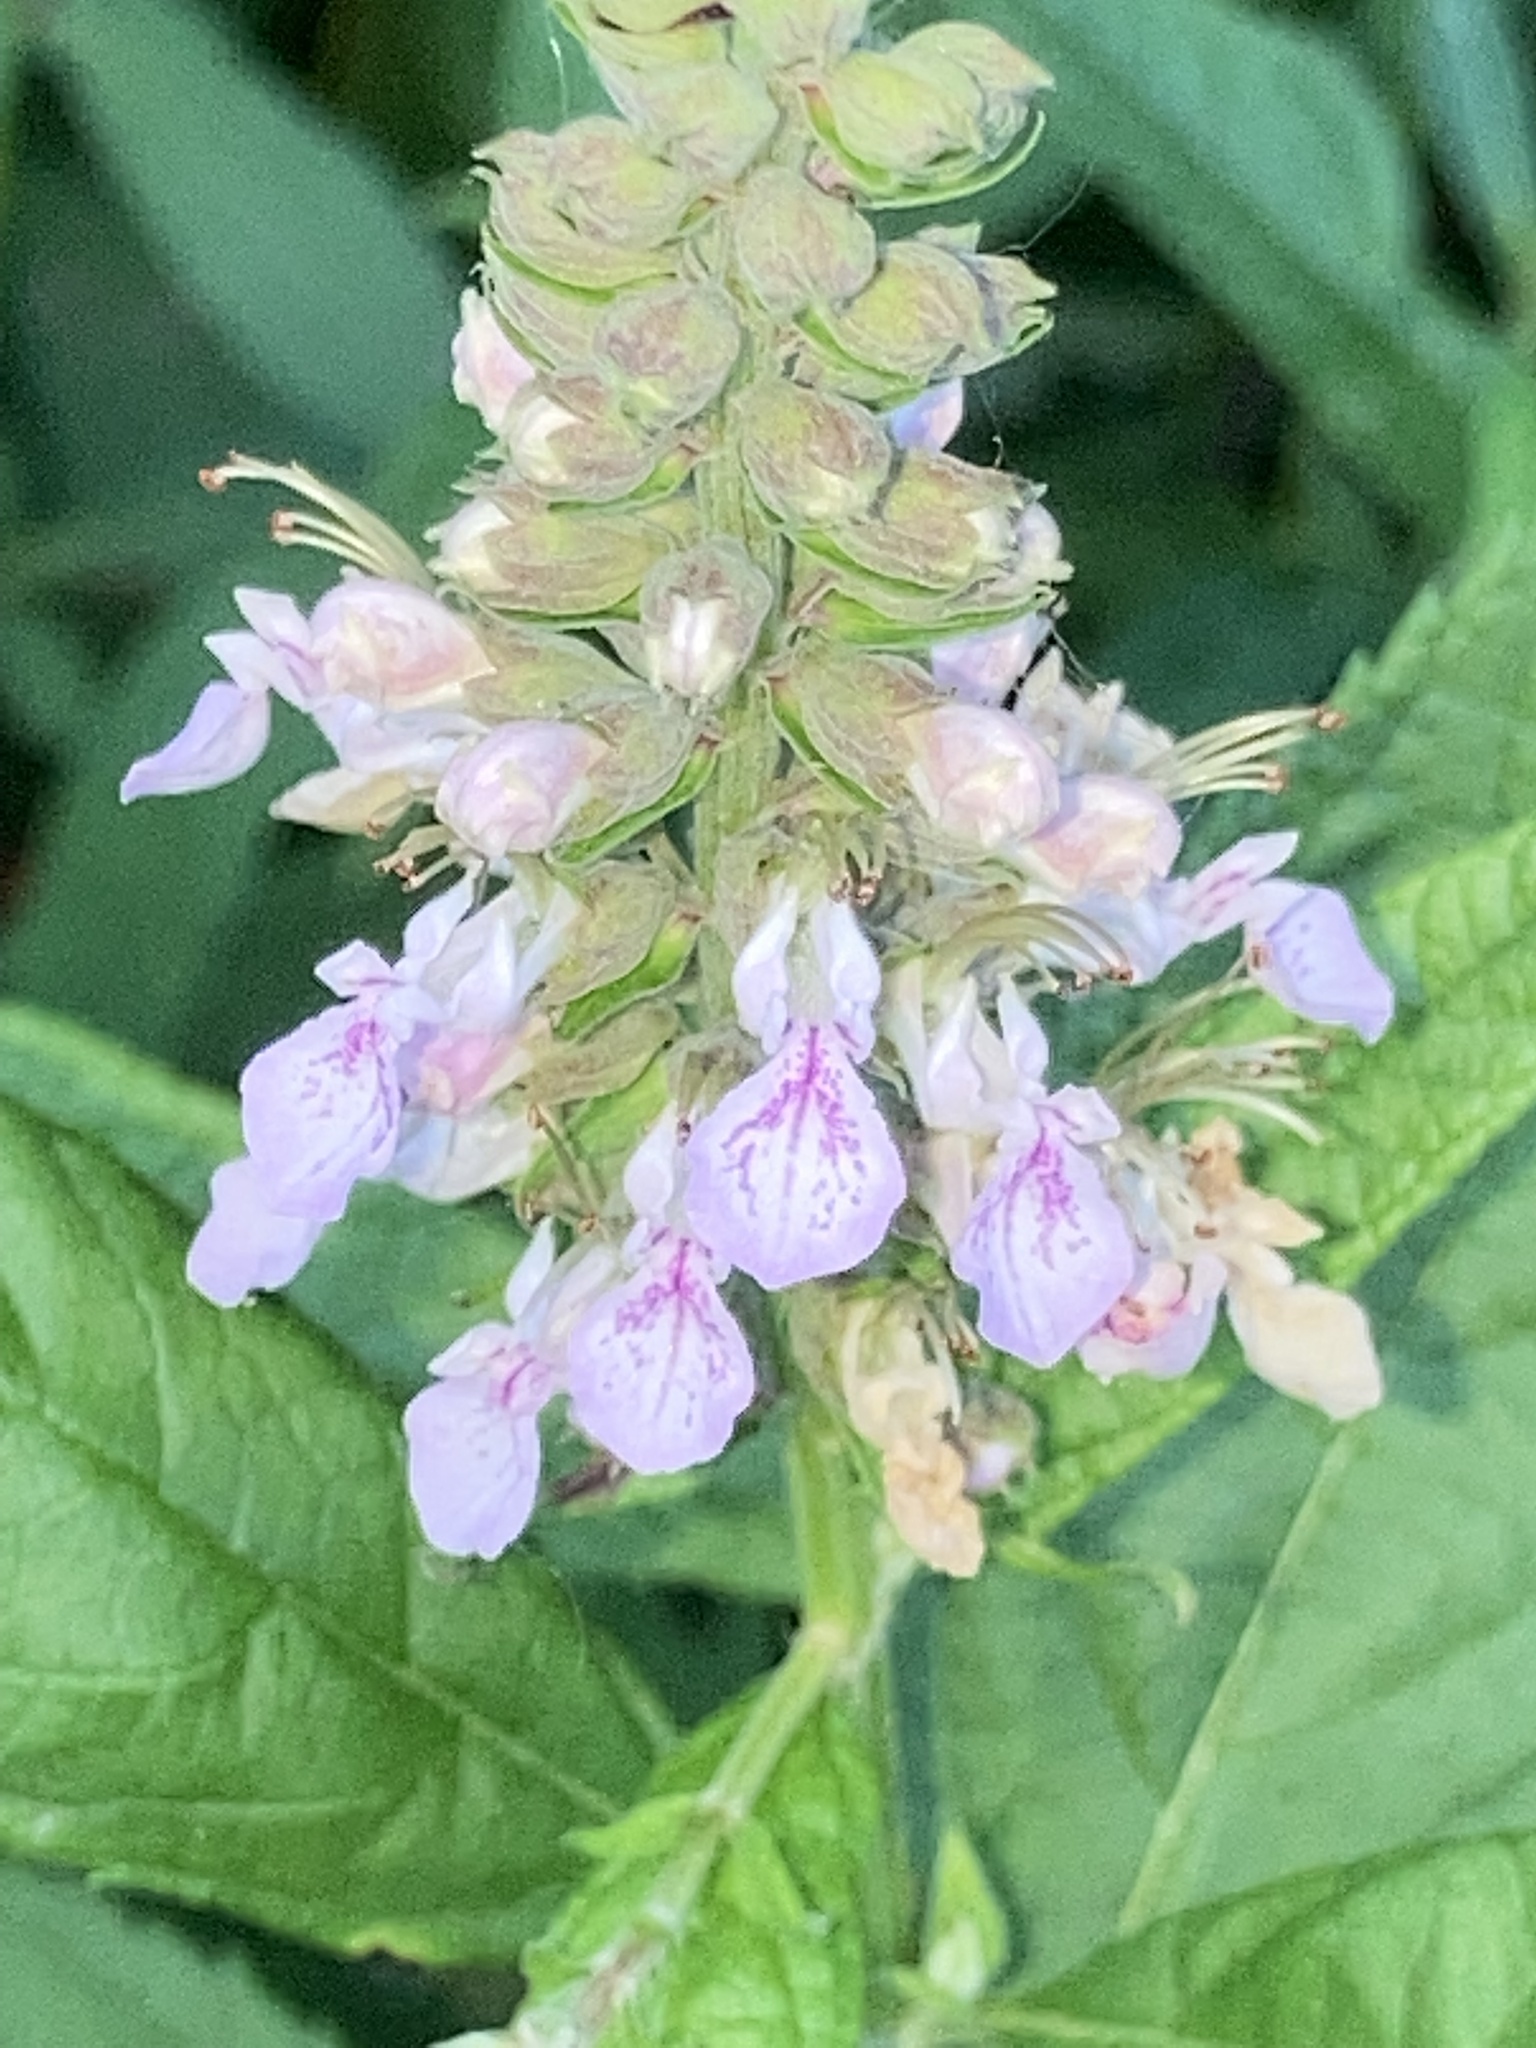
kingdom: Plantae
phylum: Tracheophyta
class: Magnoliopsida
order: Lamiales
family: Lamiaceae
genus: Teucrium
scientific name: Teucrium canadense
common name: American germander
